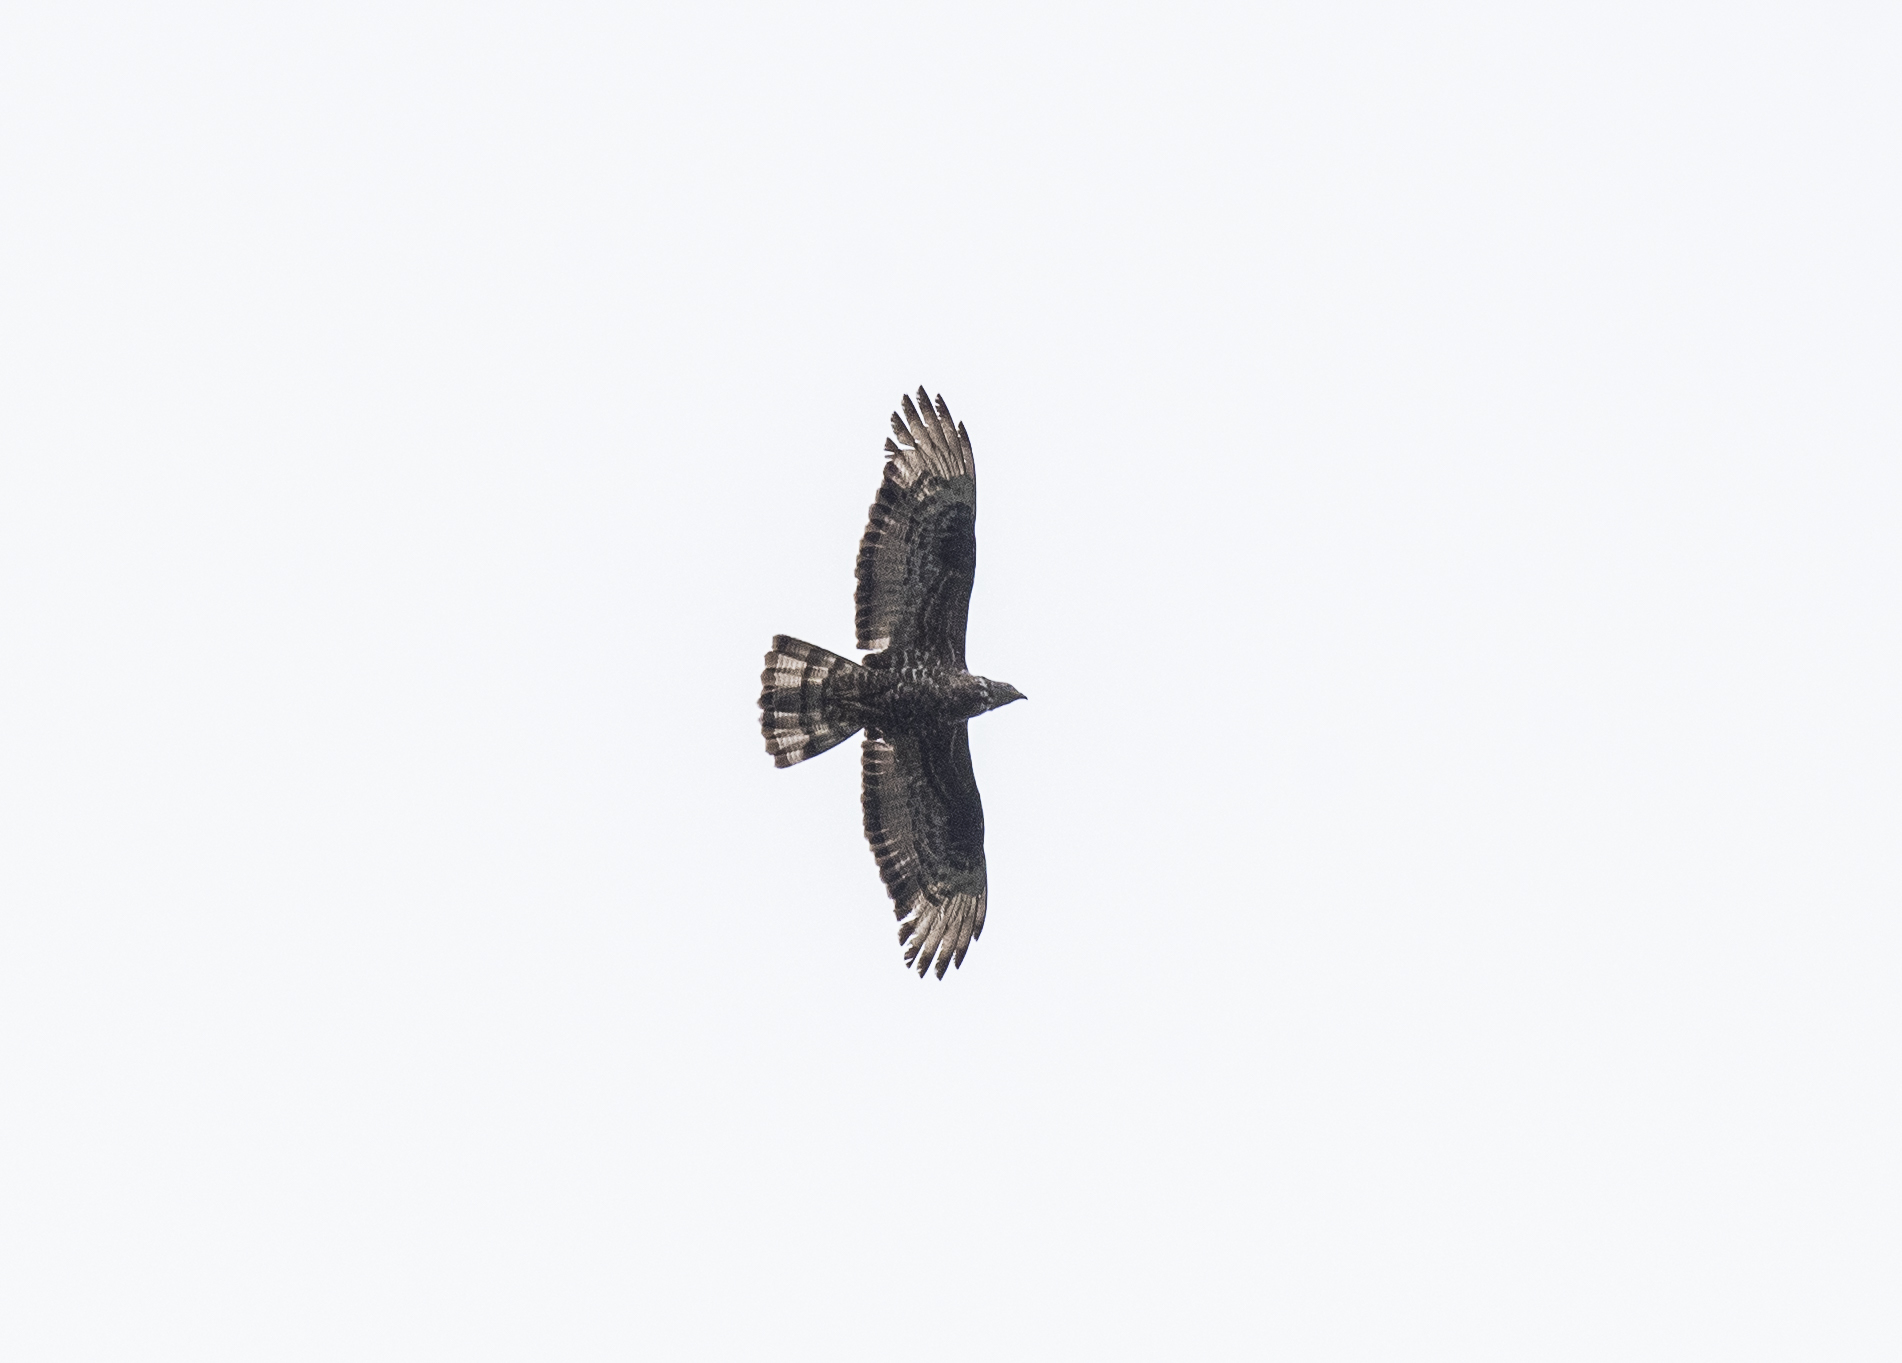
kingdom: Animalia
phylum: Chordata
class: Aves
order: Accipitriformes
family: Accipitridae
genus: Pernis
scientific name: Pernis apivorus
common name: European honey buzzard
